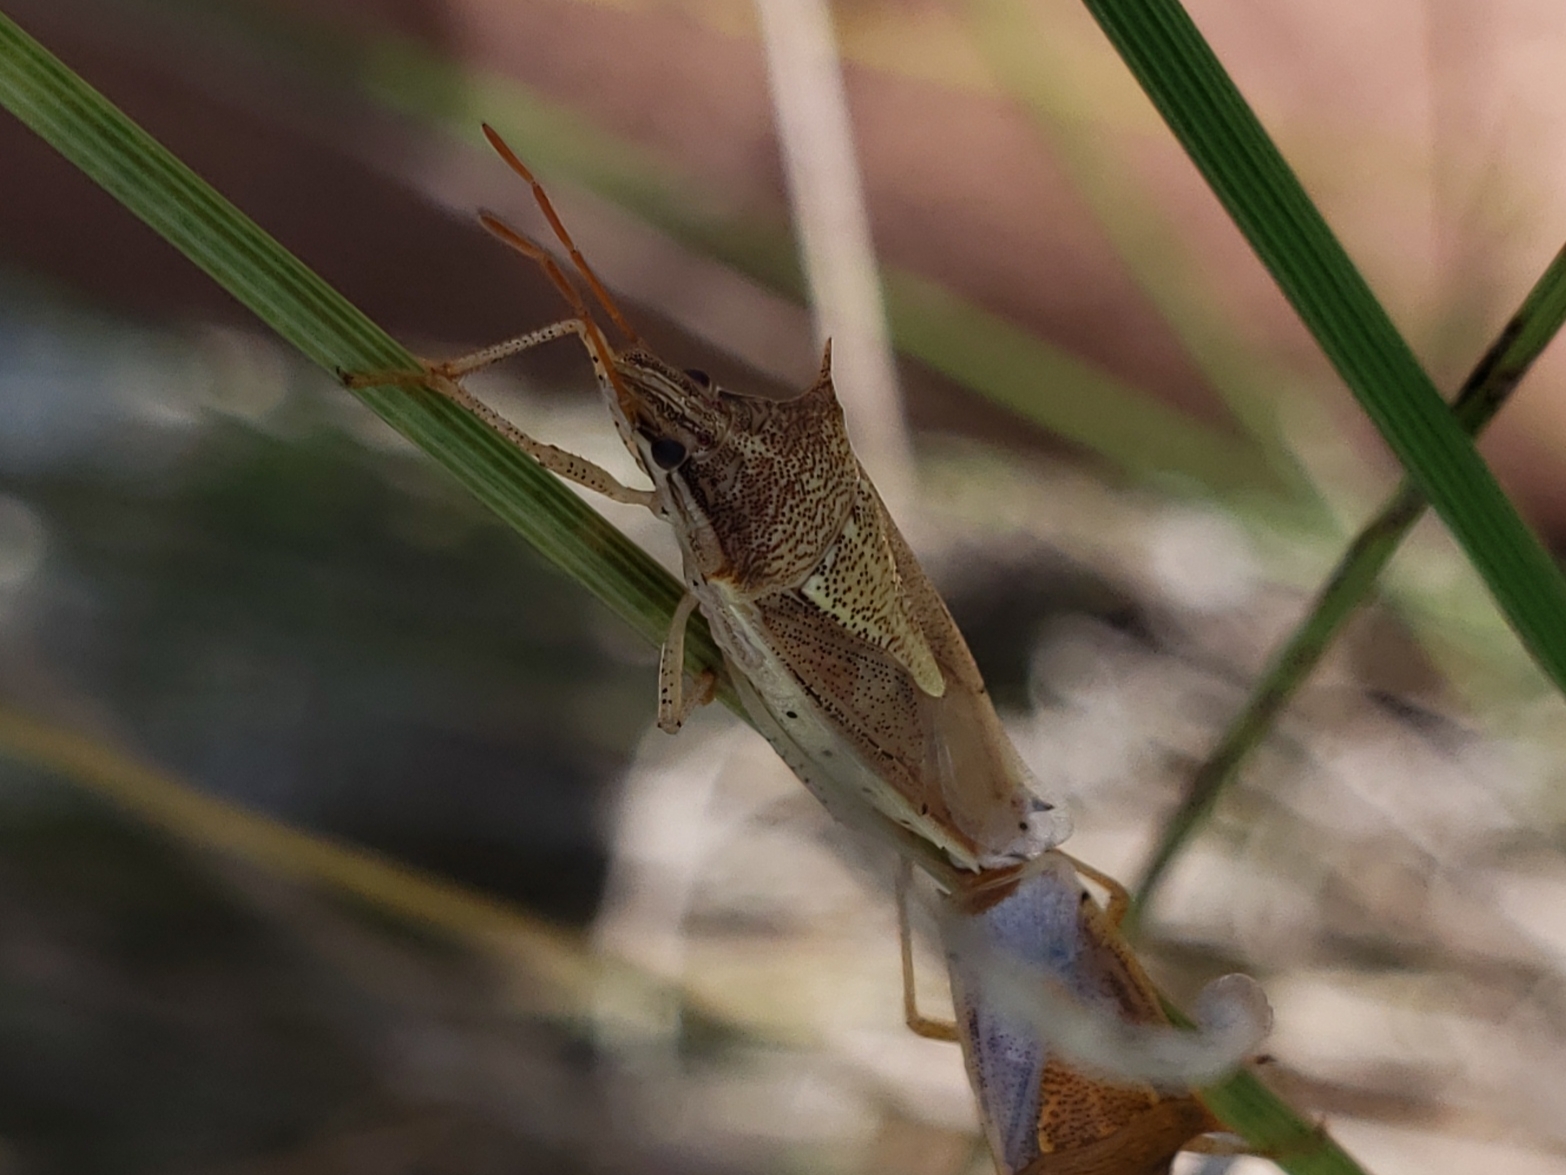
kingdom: Animalia
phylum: Arthropoda
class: Insecta
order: Hemiptera
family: Pentatomidae
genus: Oebalus
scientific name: Oebalus pugnax
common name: Rice stink bug
